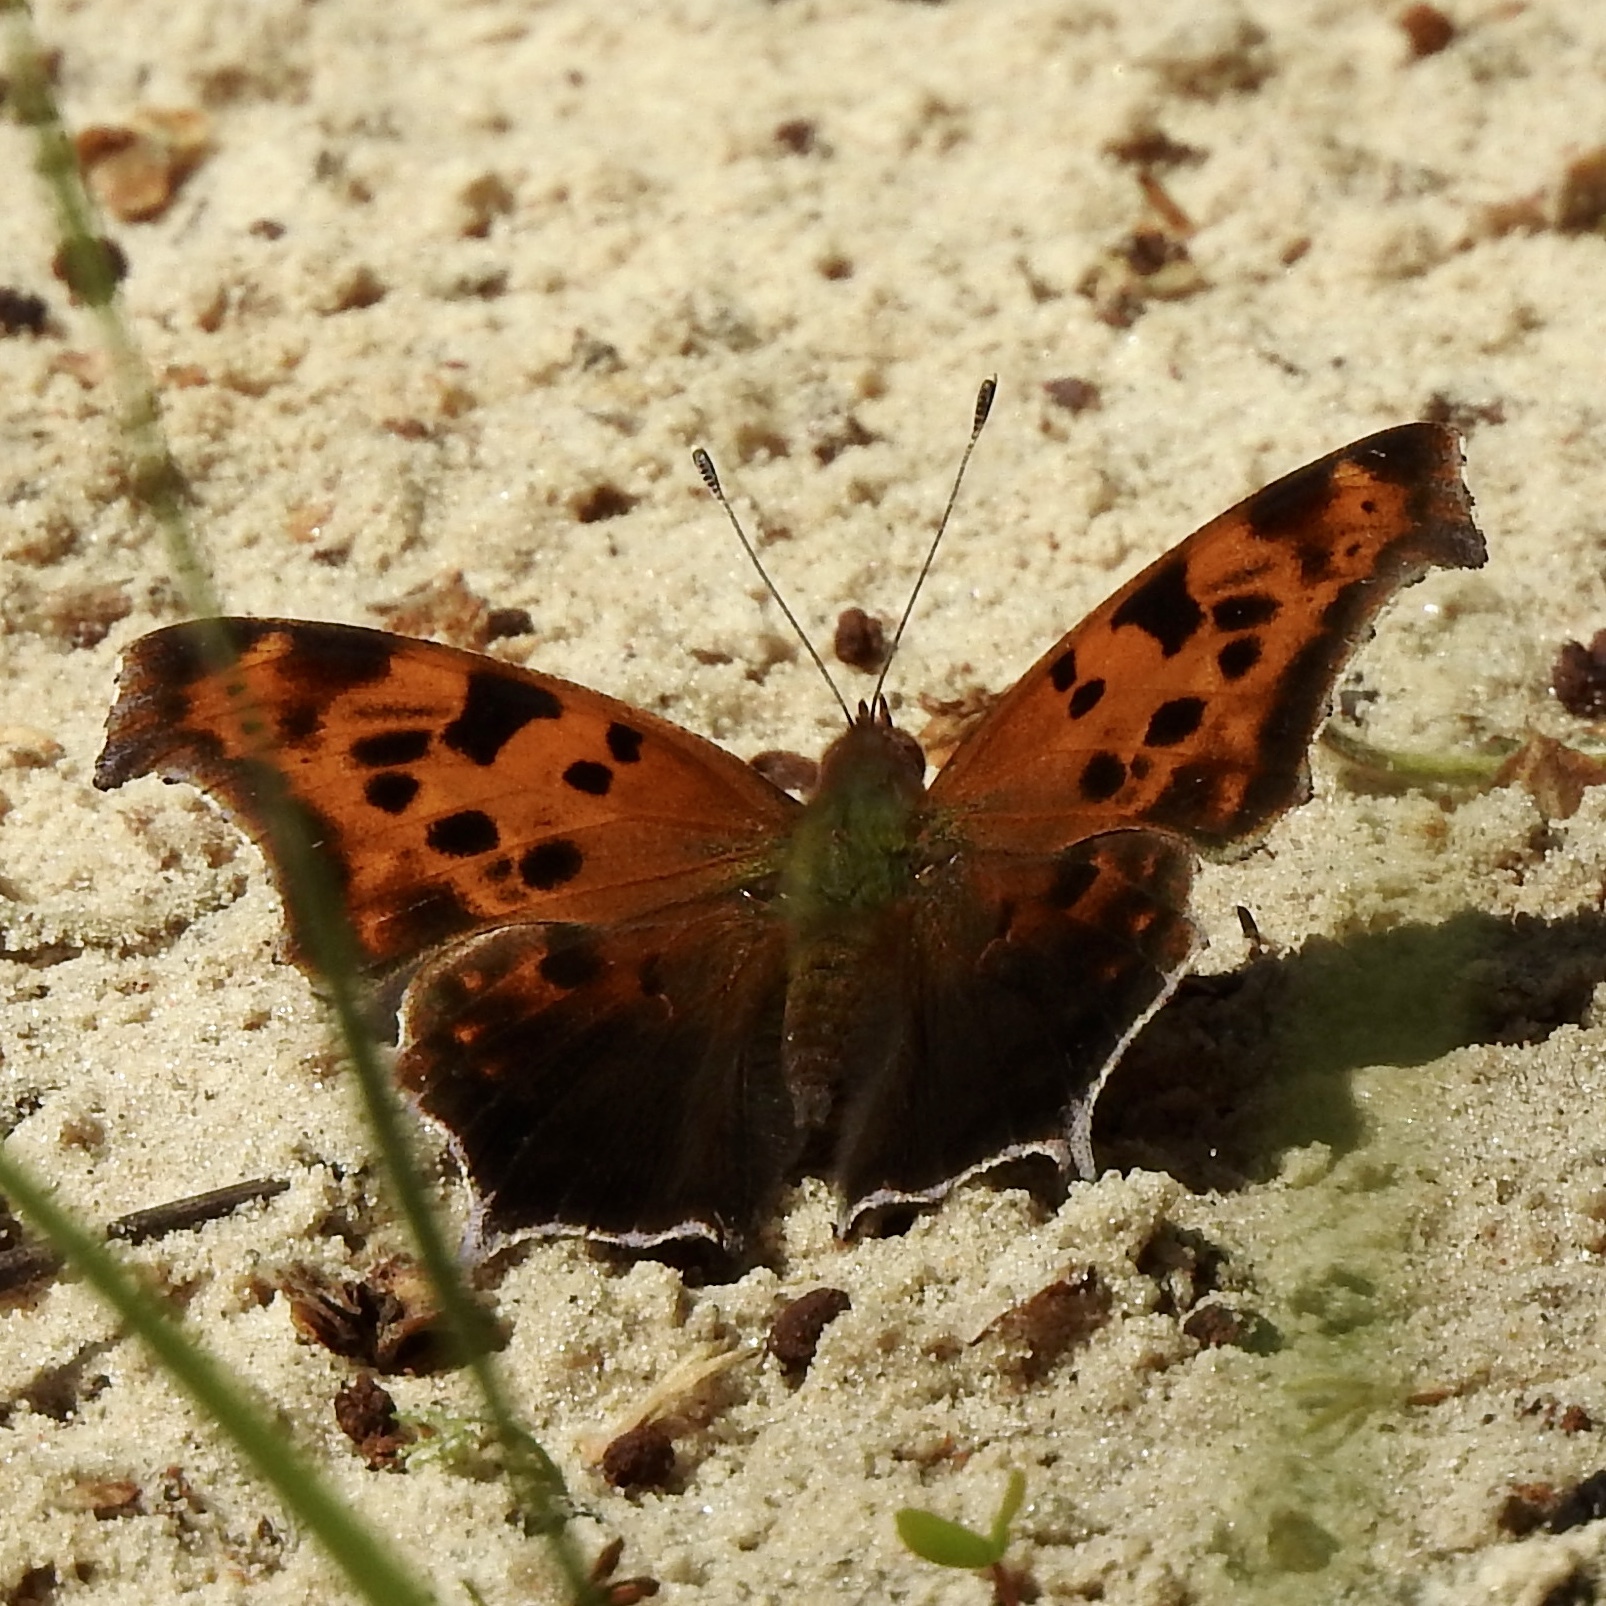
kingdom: Animalia
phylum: Arthropoda
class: Insecta
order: Lepidoptera
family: Nymphalidae
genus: Polygonia
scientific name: Polygonia interrogationis
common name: Question mark
